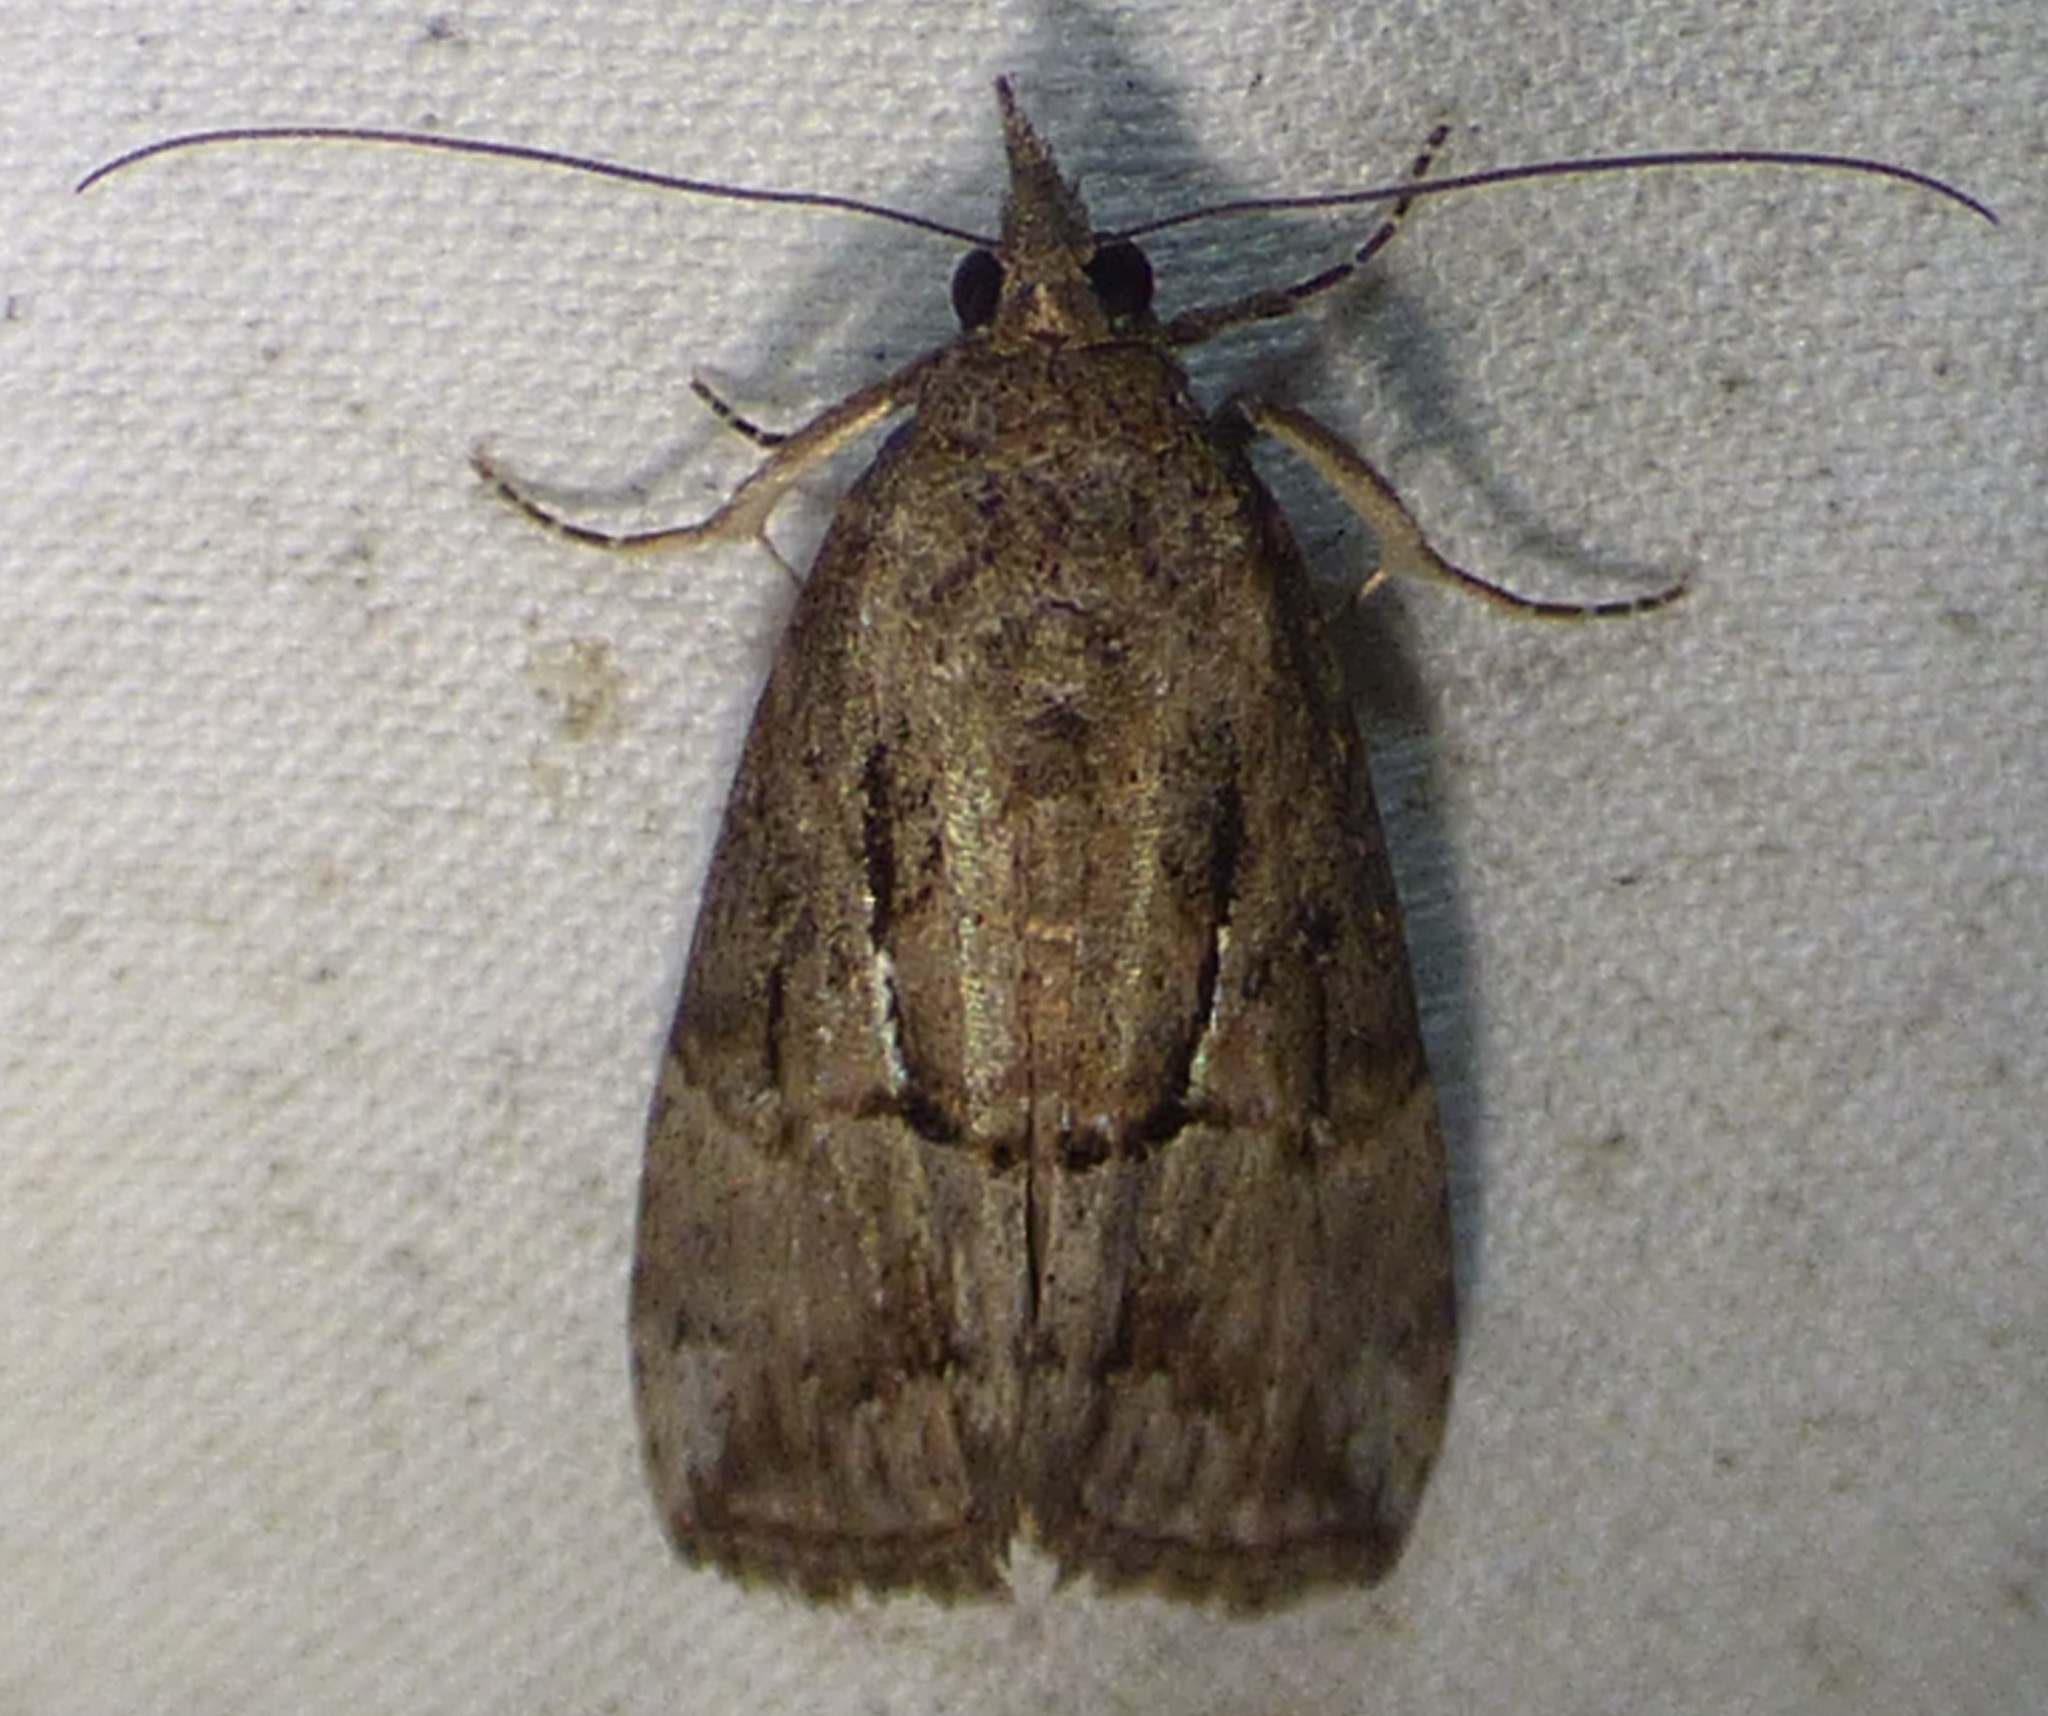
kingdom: Animalia
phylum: Arthropoda
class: Insecta
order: Lepidoptera
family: Erebidae
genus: Hypena
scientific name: Hypena scabra
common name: Green cloverworm
